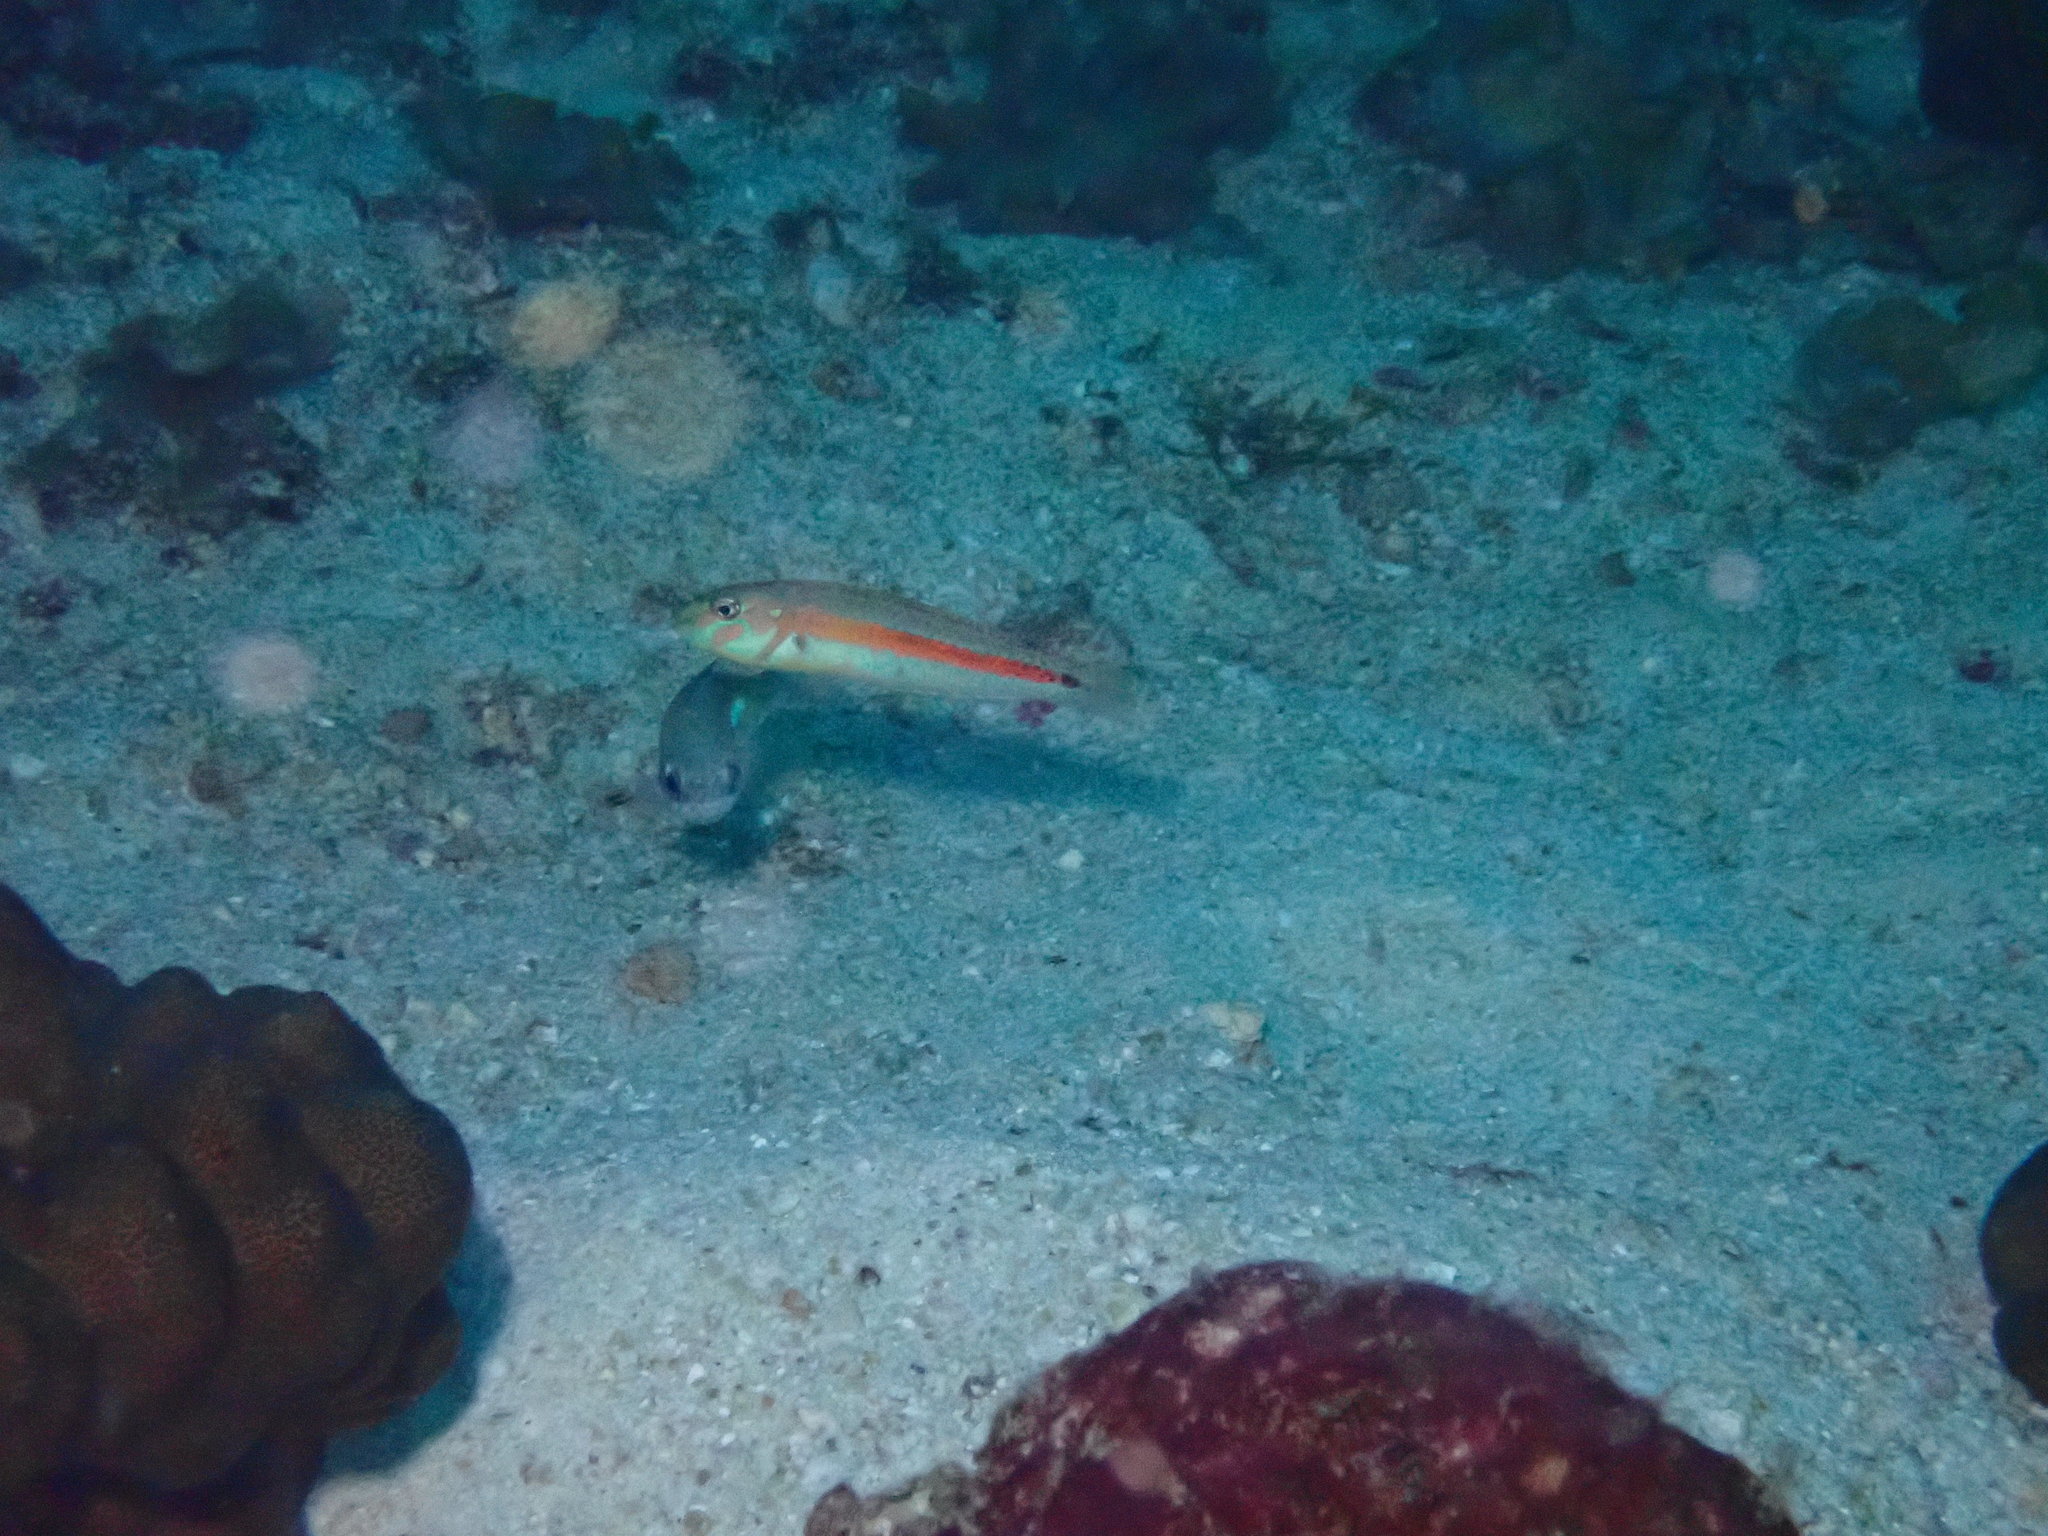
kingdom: Animalia
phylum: Chordata
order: Perciformes
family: Labridae
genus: Leptojulis
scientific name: Leptojulis chrysotaenia
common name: Ocre-band wrasse
